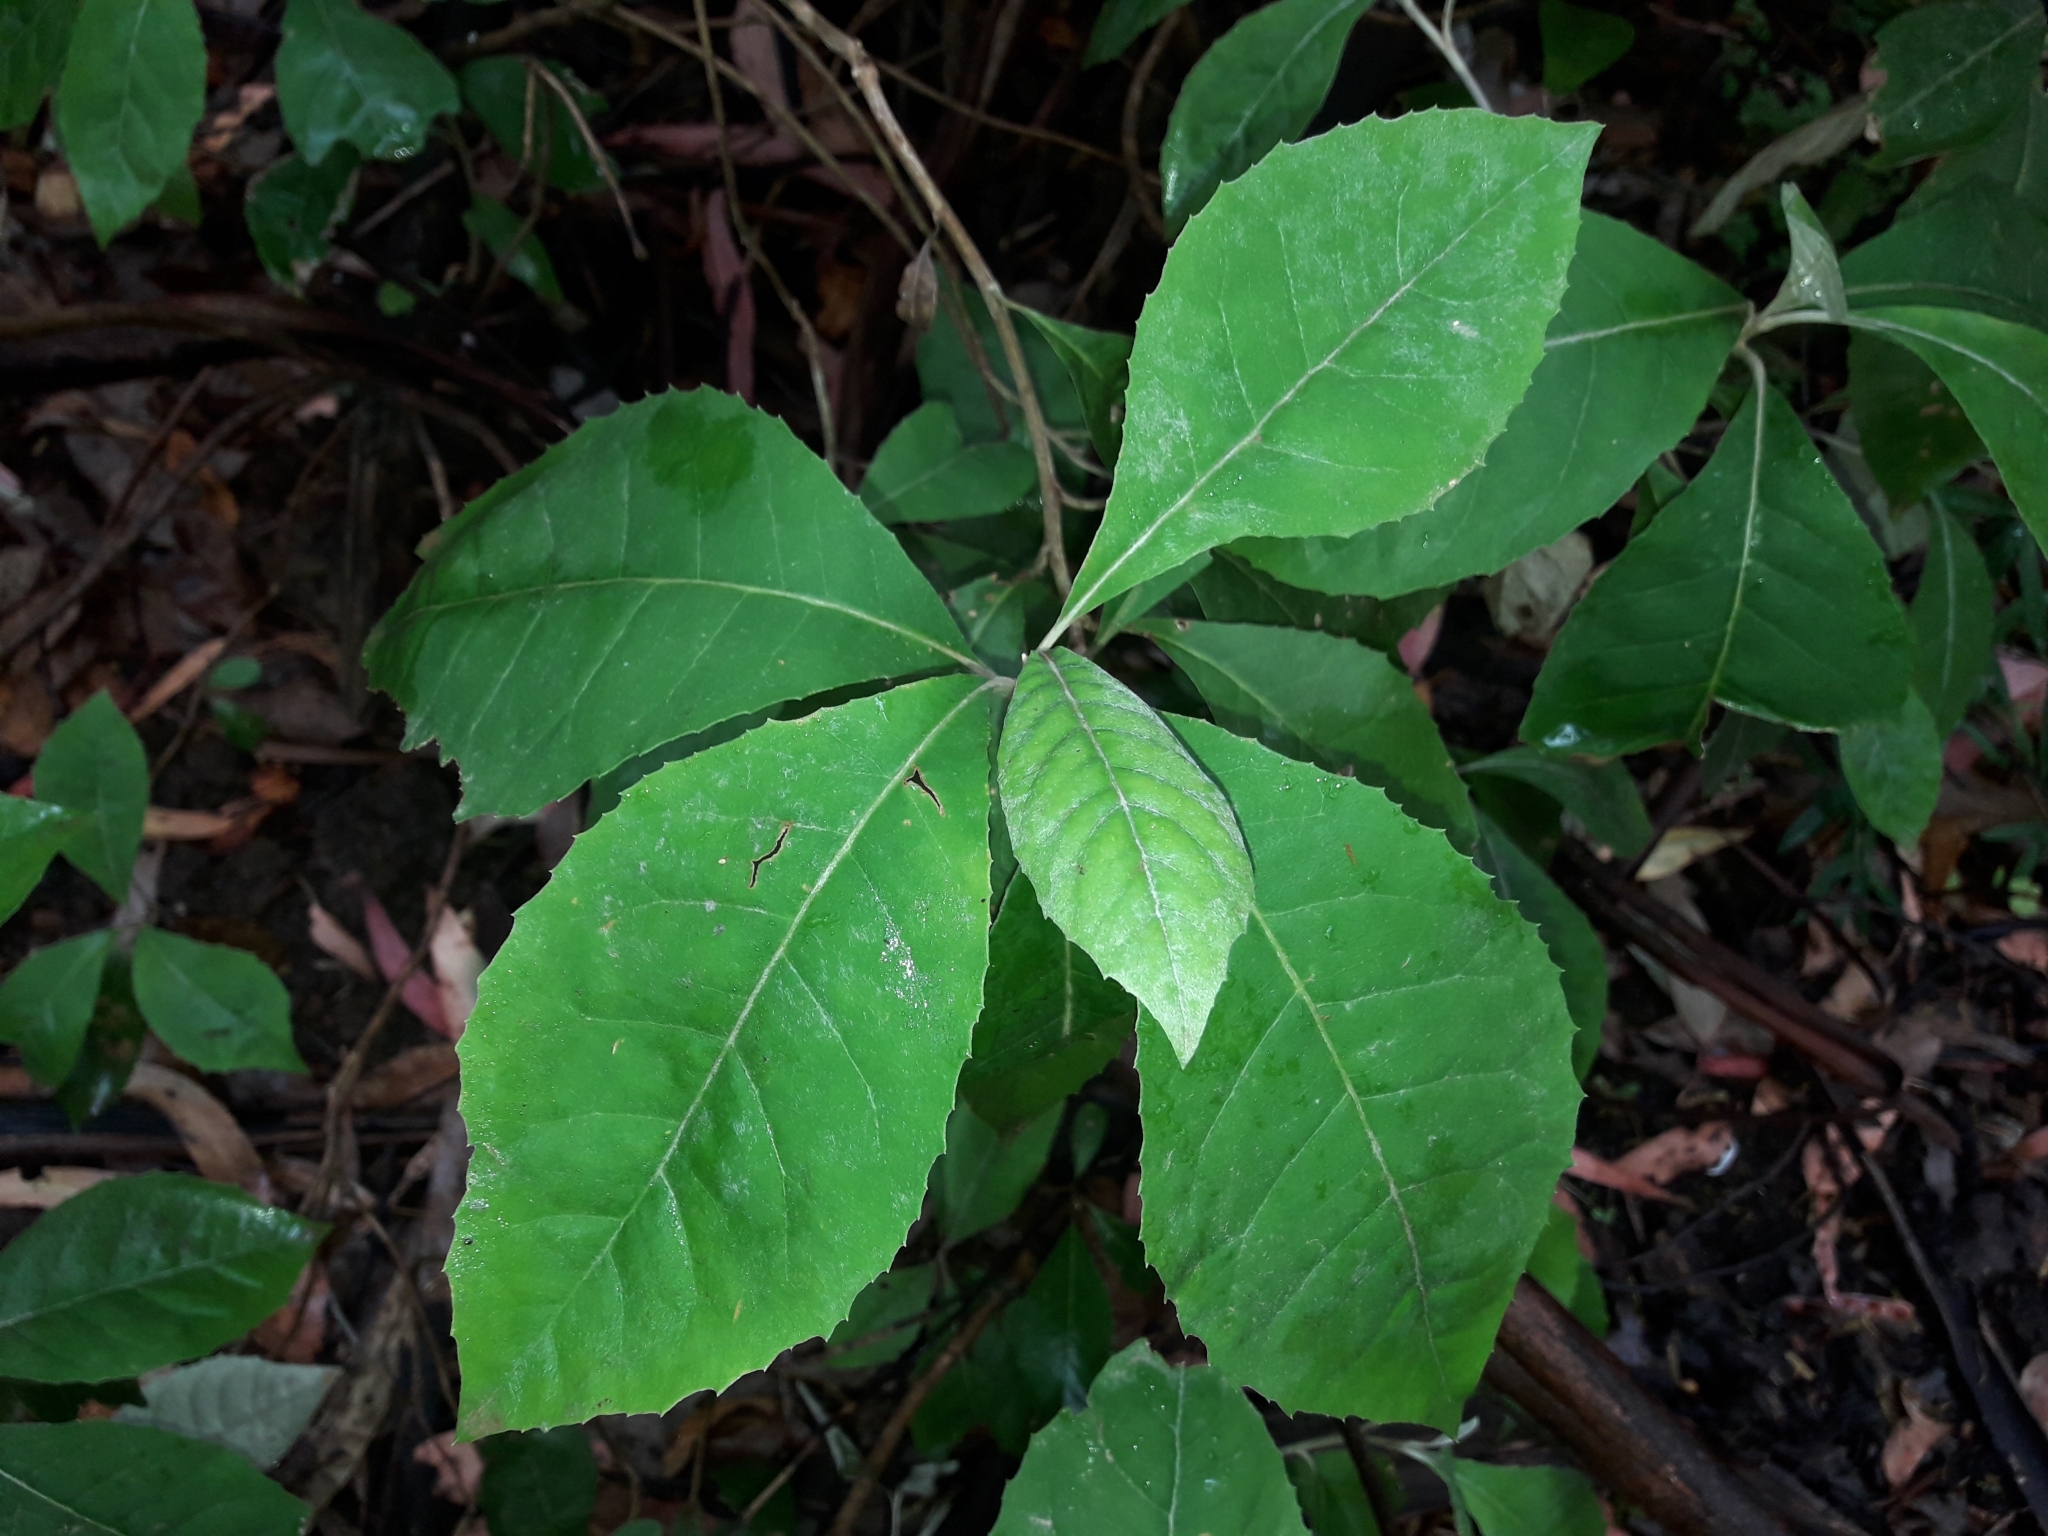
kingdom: Plantae
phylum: Tracheophyta
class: Magnoliopsida
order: Asterales
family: Asteraceae
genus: Olearia
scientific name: Olearia argophylla
